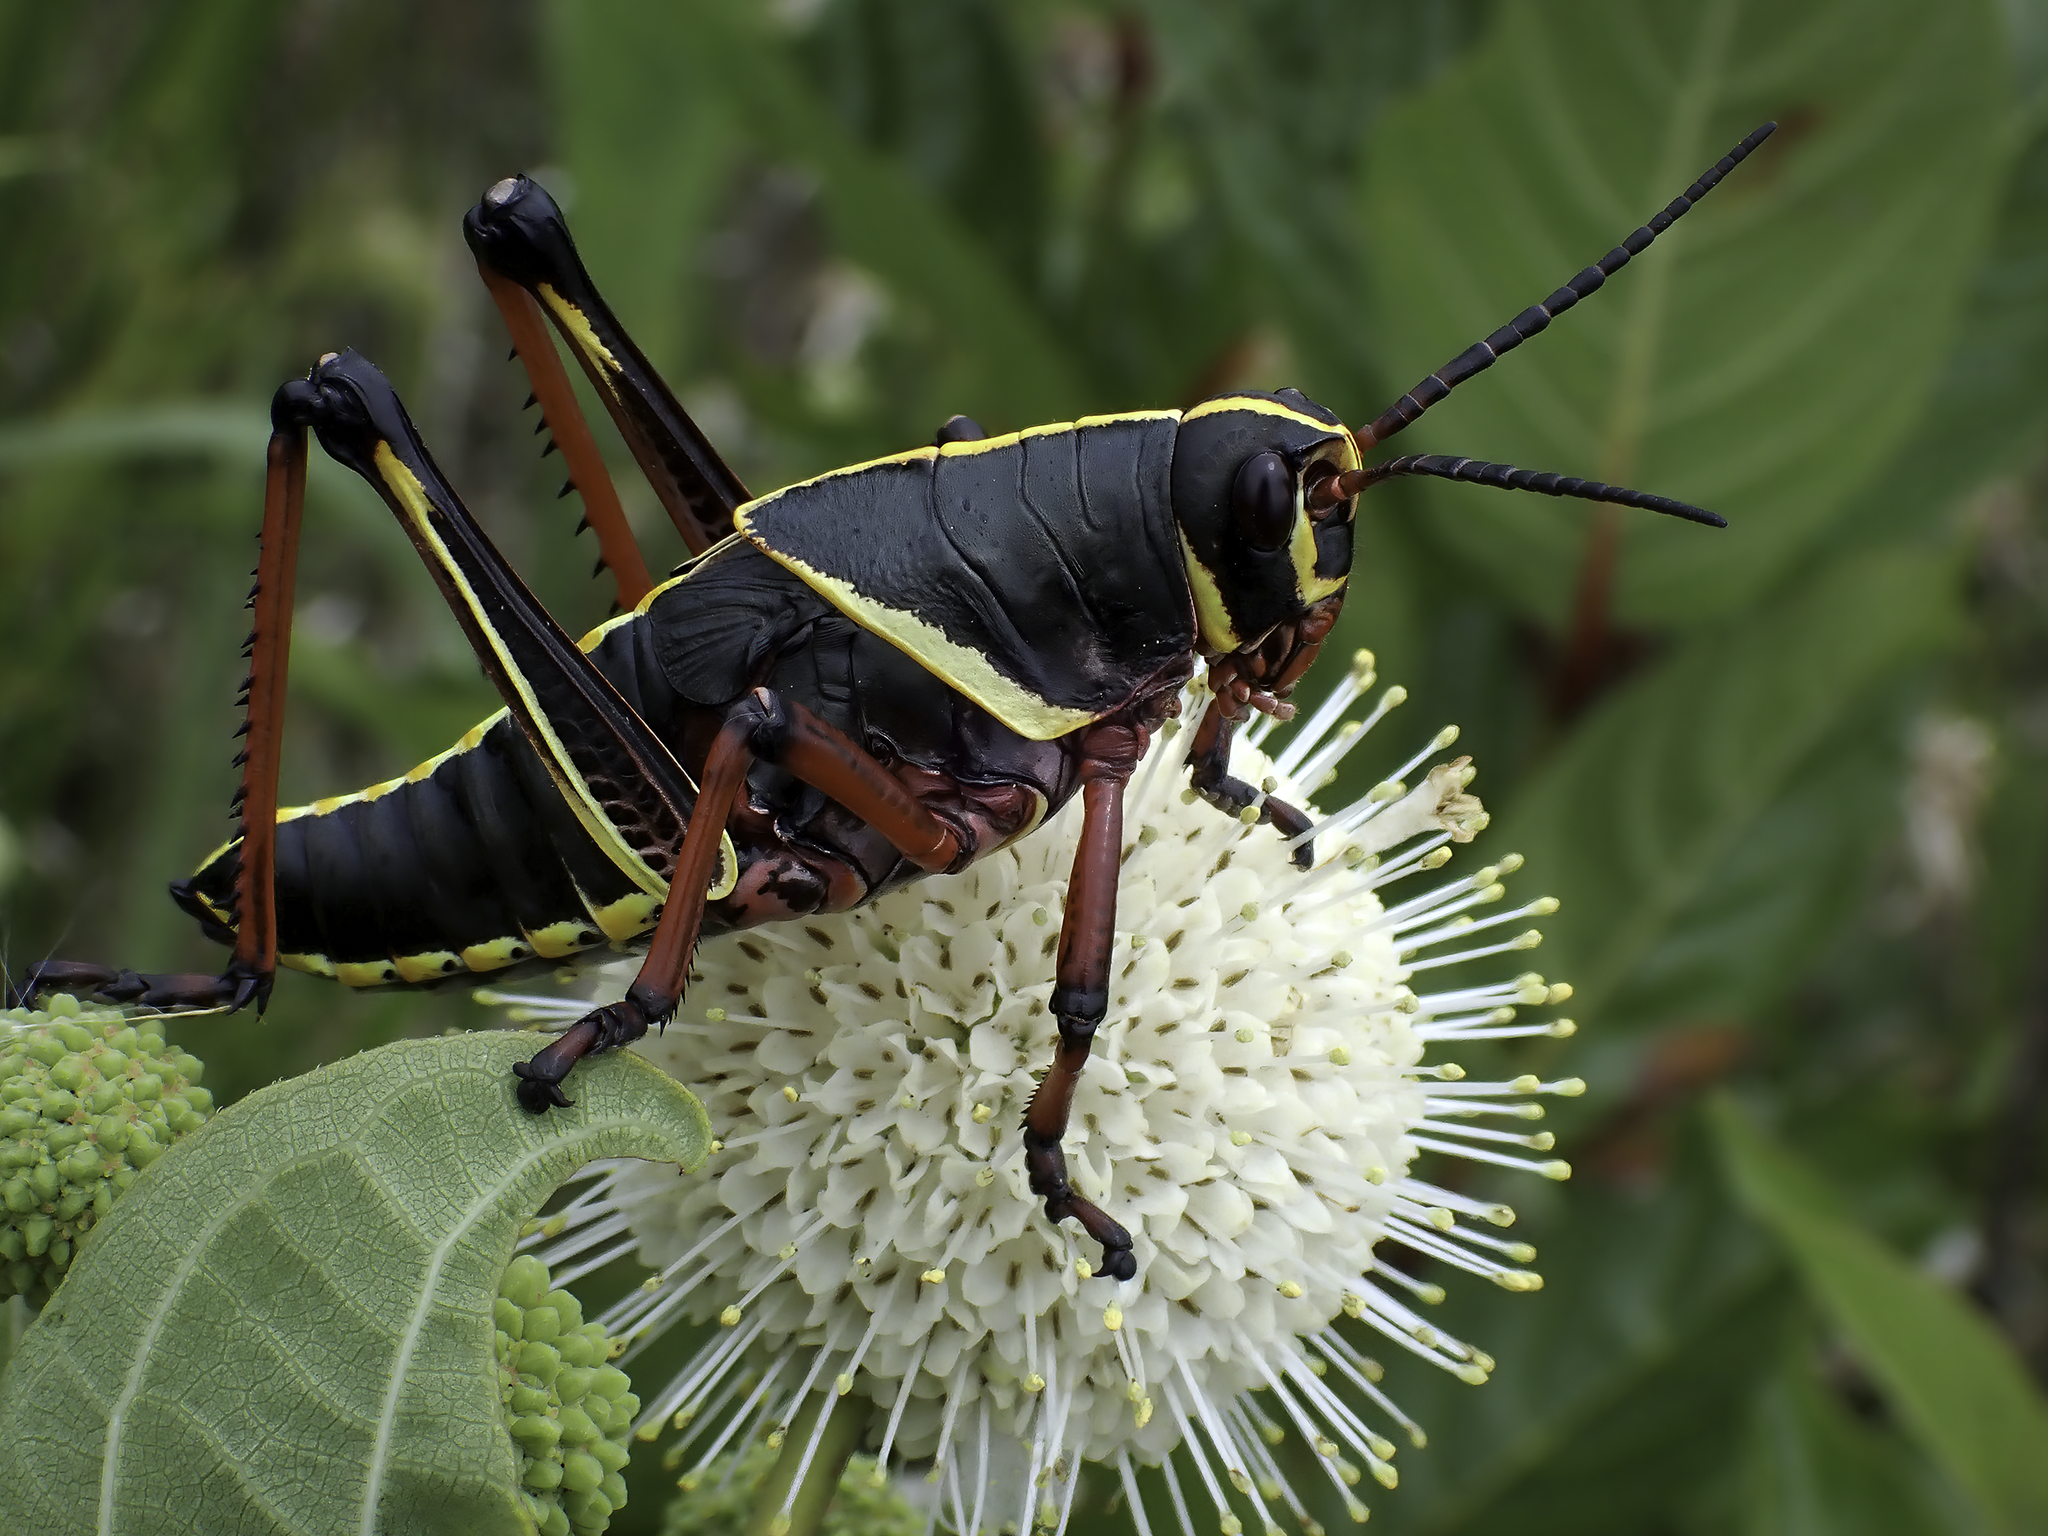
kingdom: Animalia
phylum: Arthropoda
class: Insecta
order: Orthoptera
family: Romaleidae
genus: Romalea
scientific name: Romalea microptera
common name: Eastern lubber grasshopper
